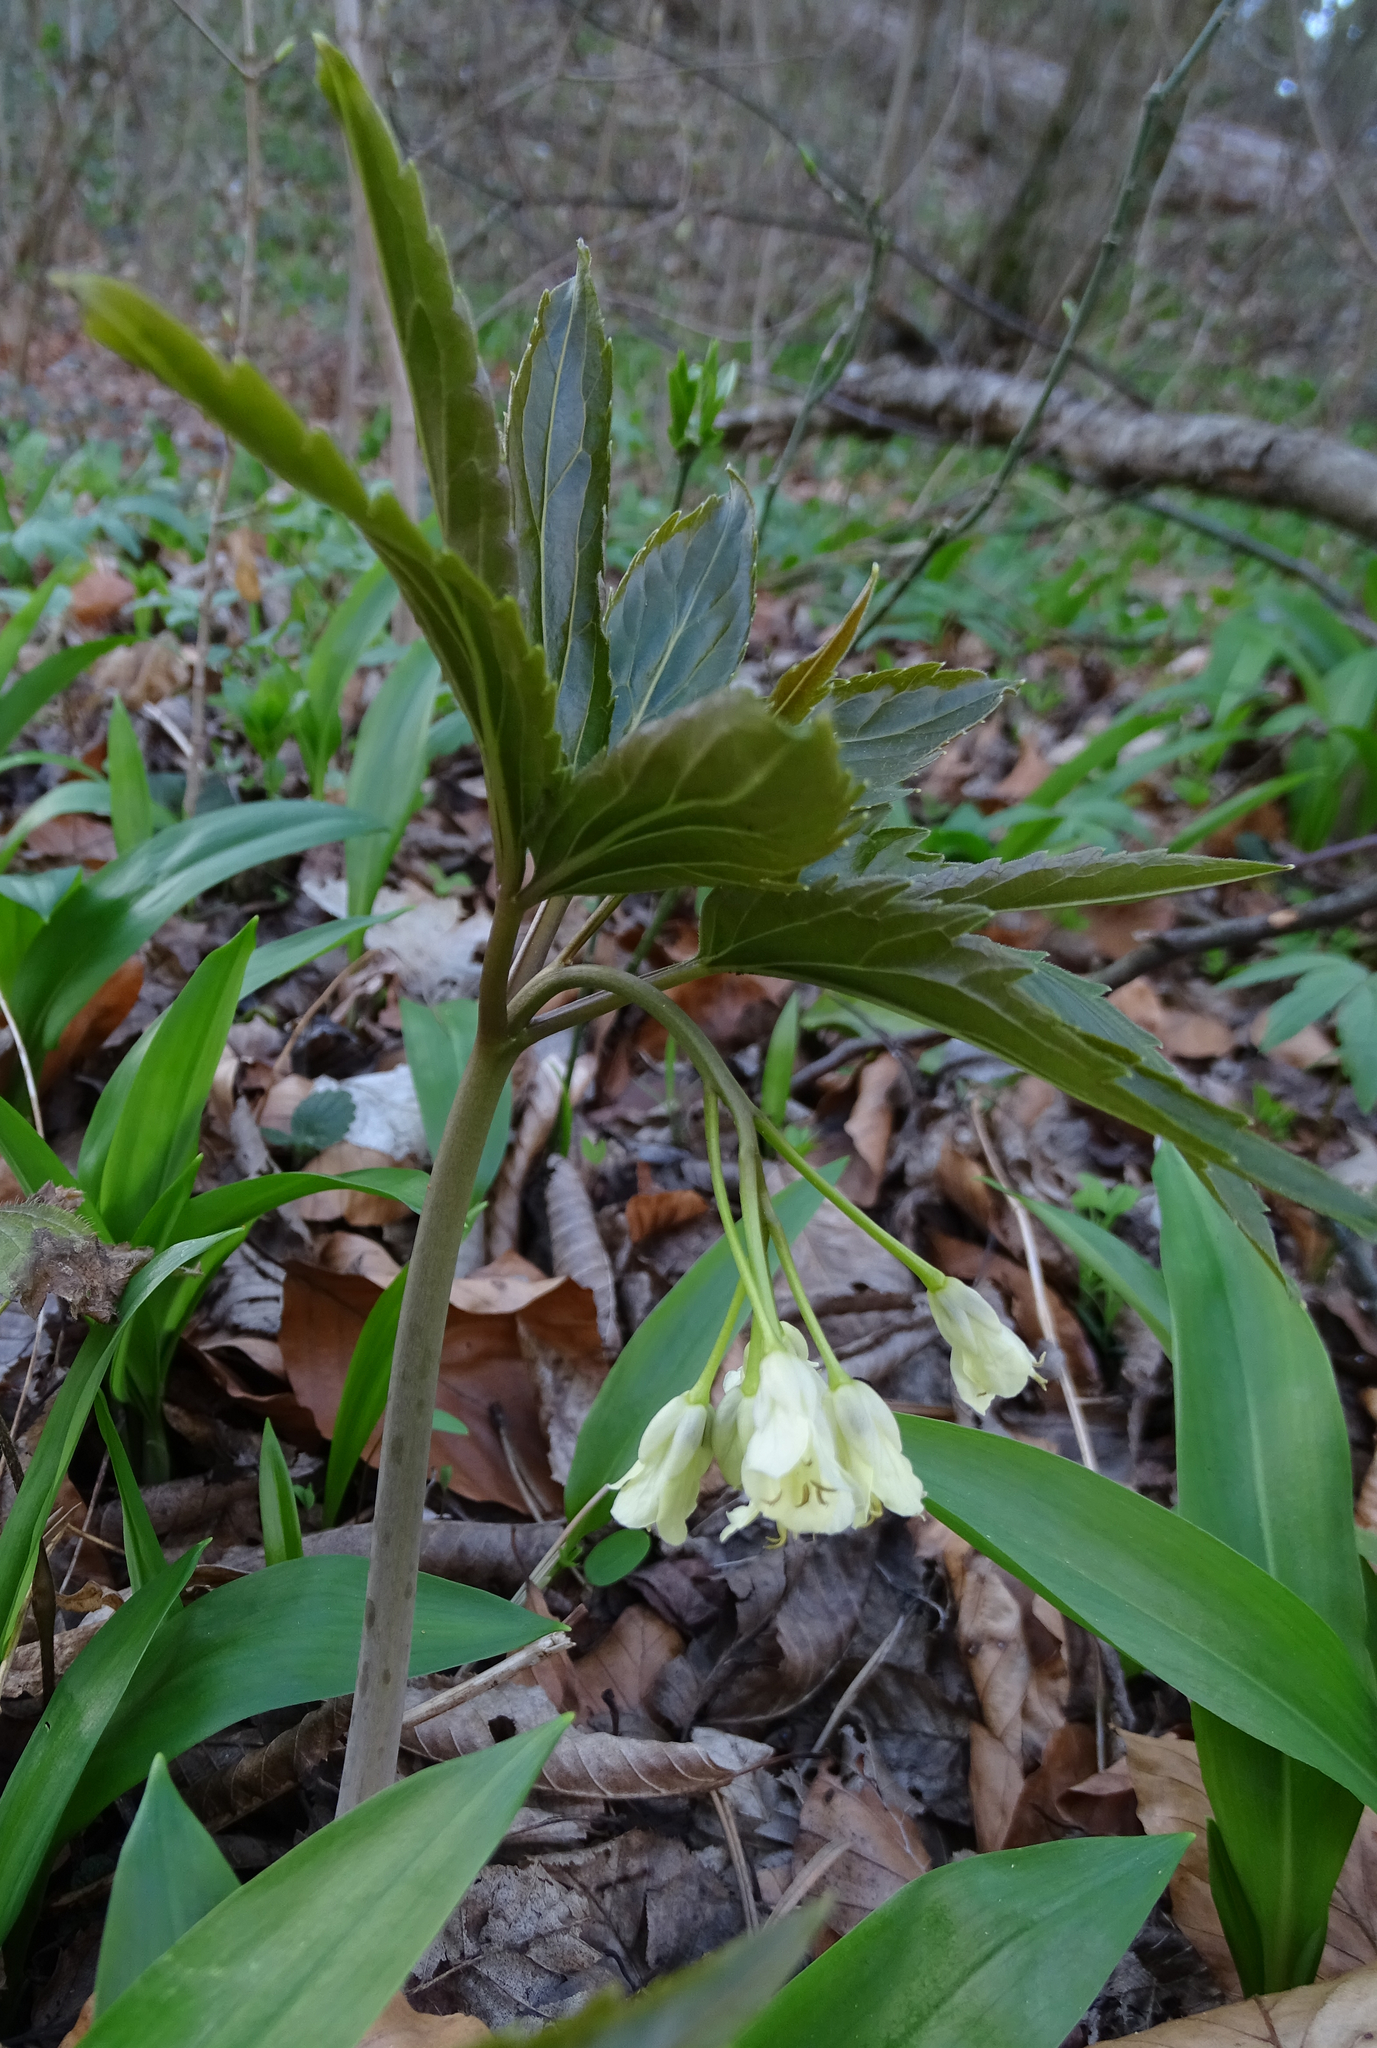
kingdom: Plantae
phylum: Tracheophyta
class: Magnoliopsida
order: Brassicales
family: Brassicaceae
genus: Cardamine
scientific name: Cardamine enneaphyllos
